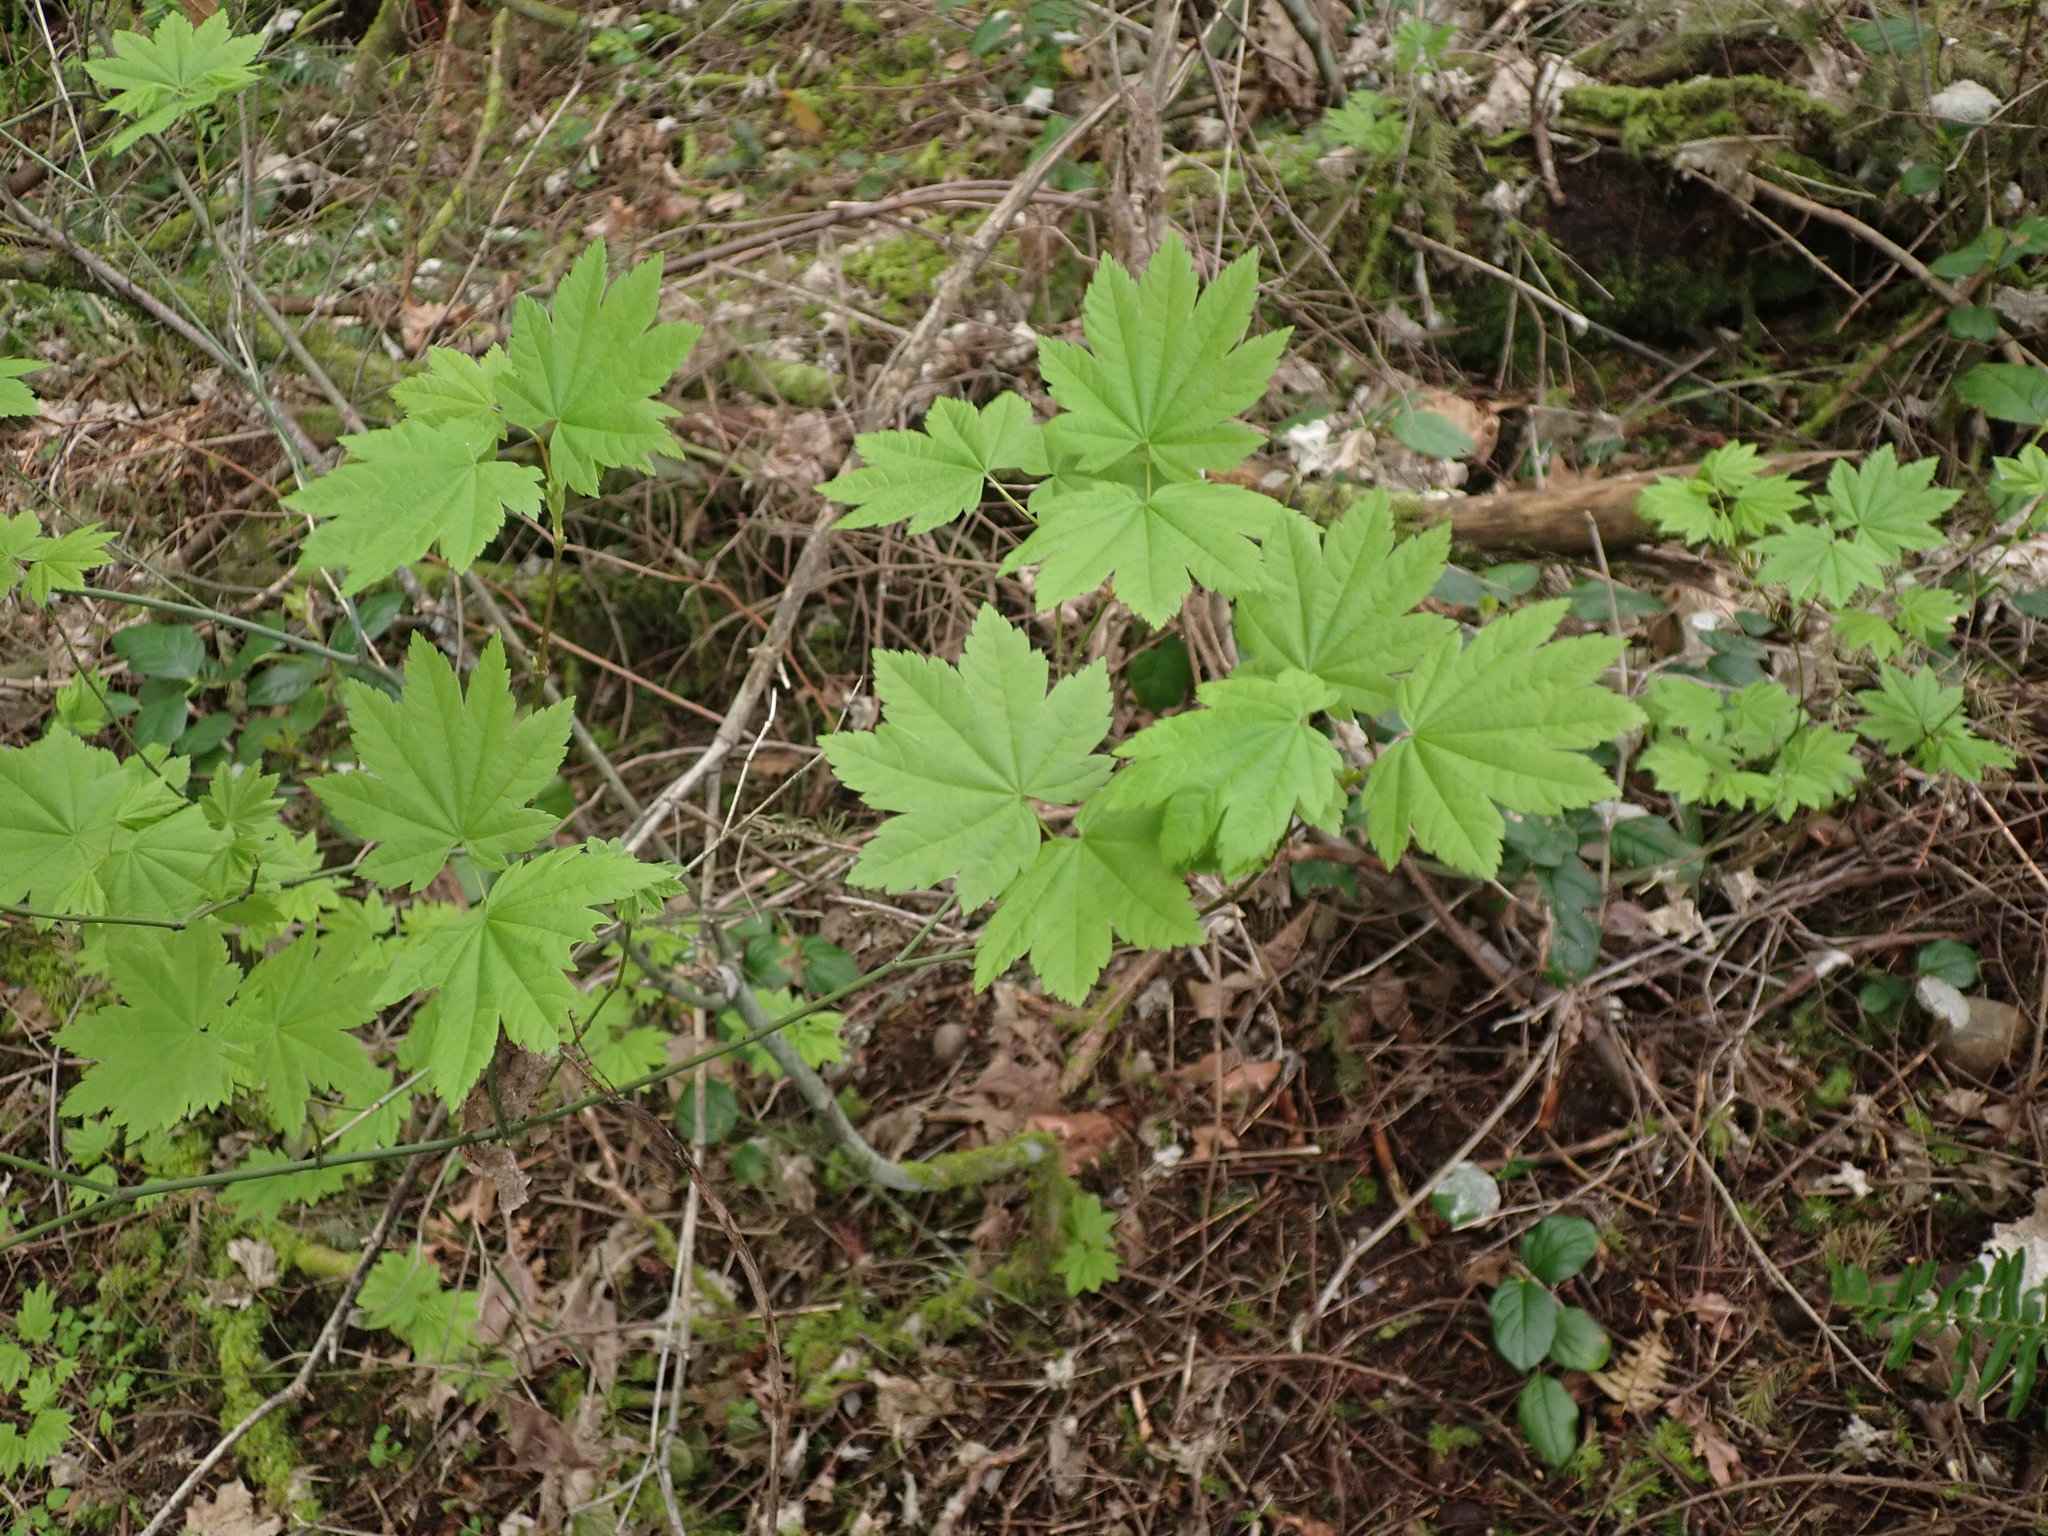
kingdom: Plantae
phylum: Tracheophyta
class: Magnoliopsida
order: Sapindales
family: Sapindaceae
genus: Acer
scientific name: Acer circinatum
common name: Vine maple
